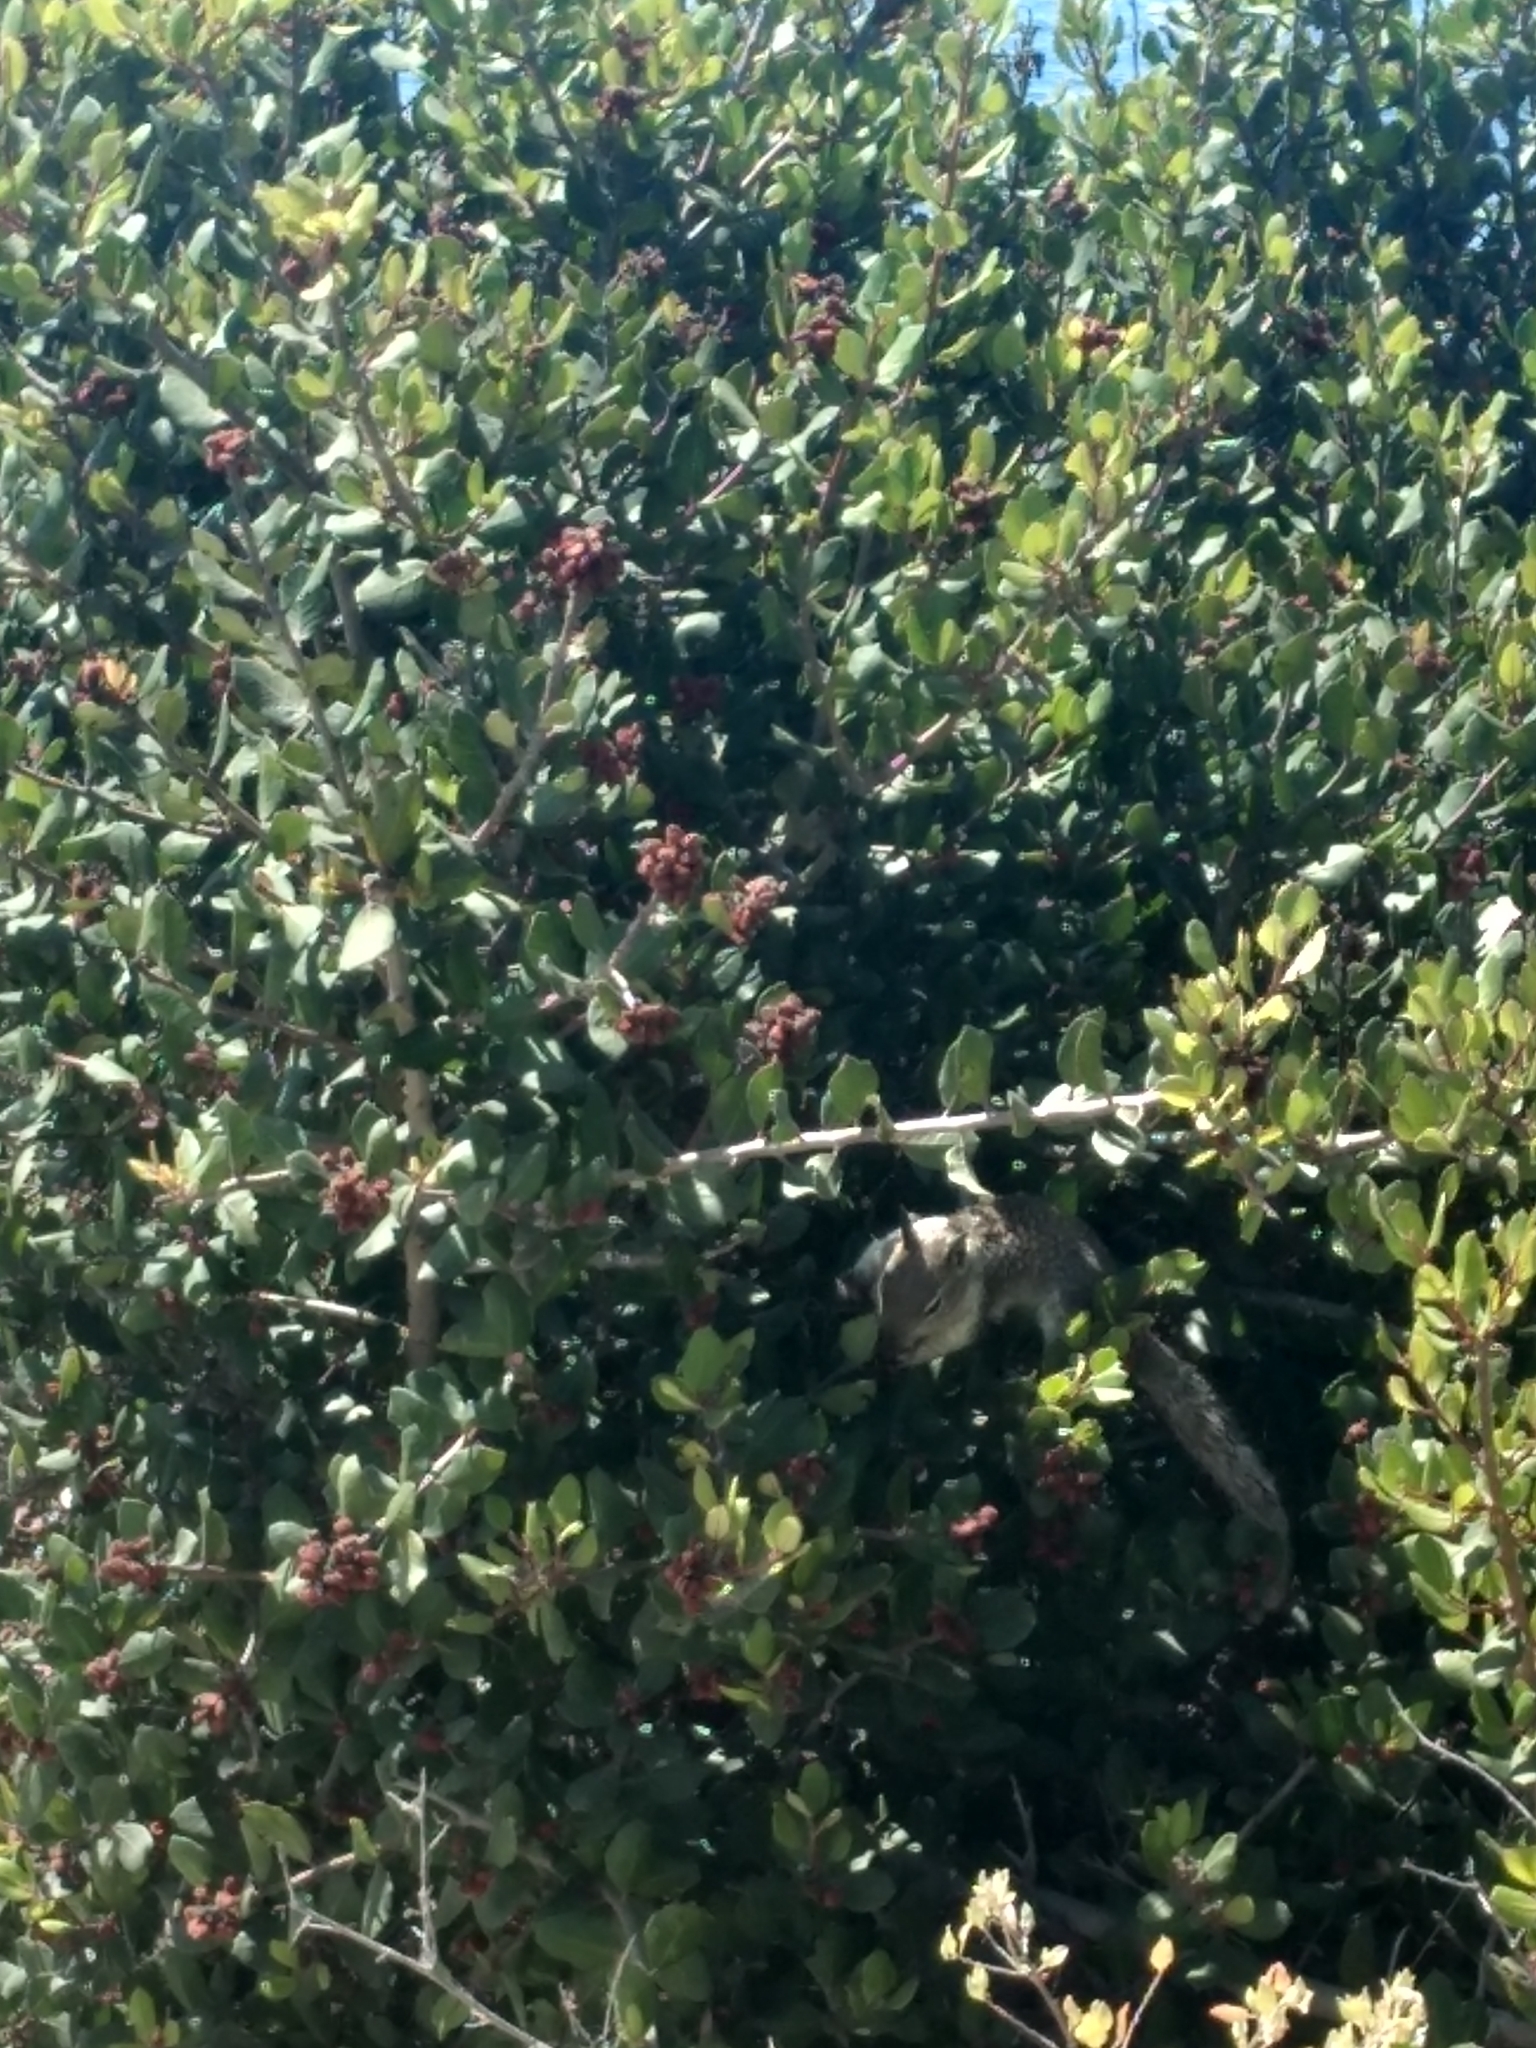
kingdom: Animalia
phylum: Chordata
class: Mammalia
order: Rodentia
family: Sciuridae
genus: Otospermophilus
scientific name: Otospermophilus beecheyi
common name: California ground squirrel
